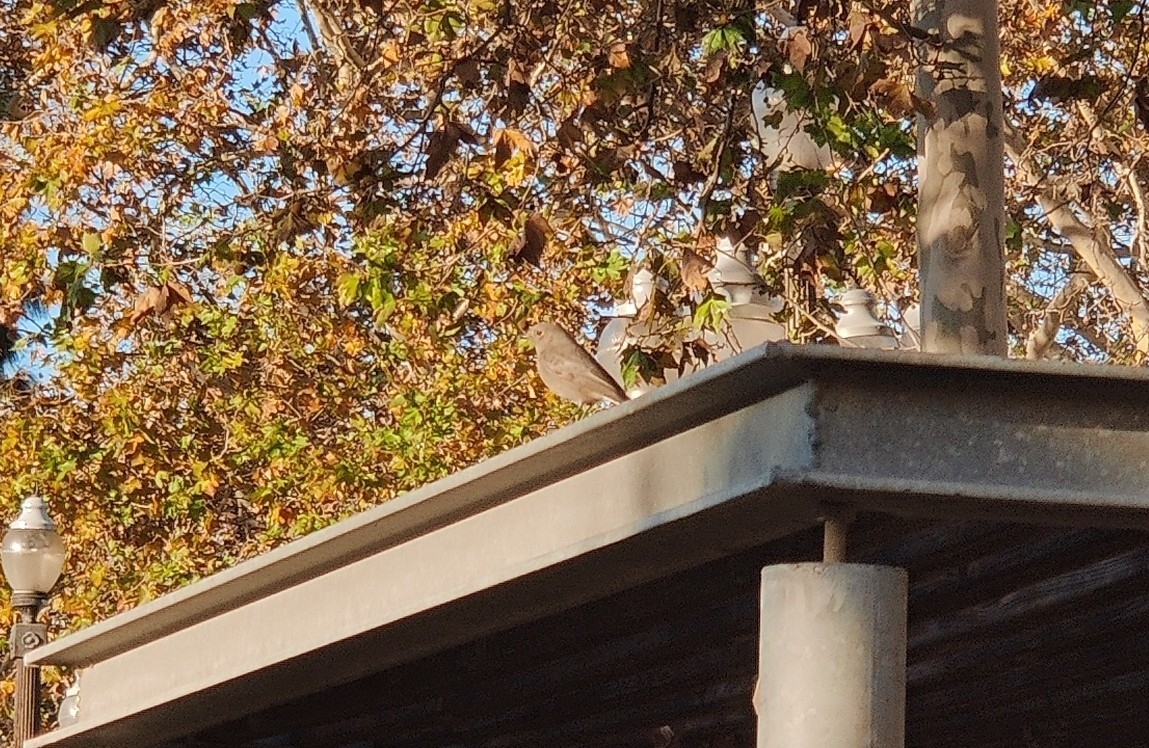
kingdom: Animalia
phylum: Chordata
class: Aves
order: Passeriformes
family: Muscicapidae
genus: Phoenicurus
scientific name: Phoenicurus ochruros
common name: Black redstart
